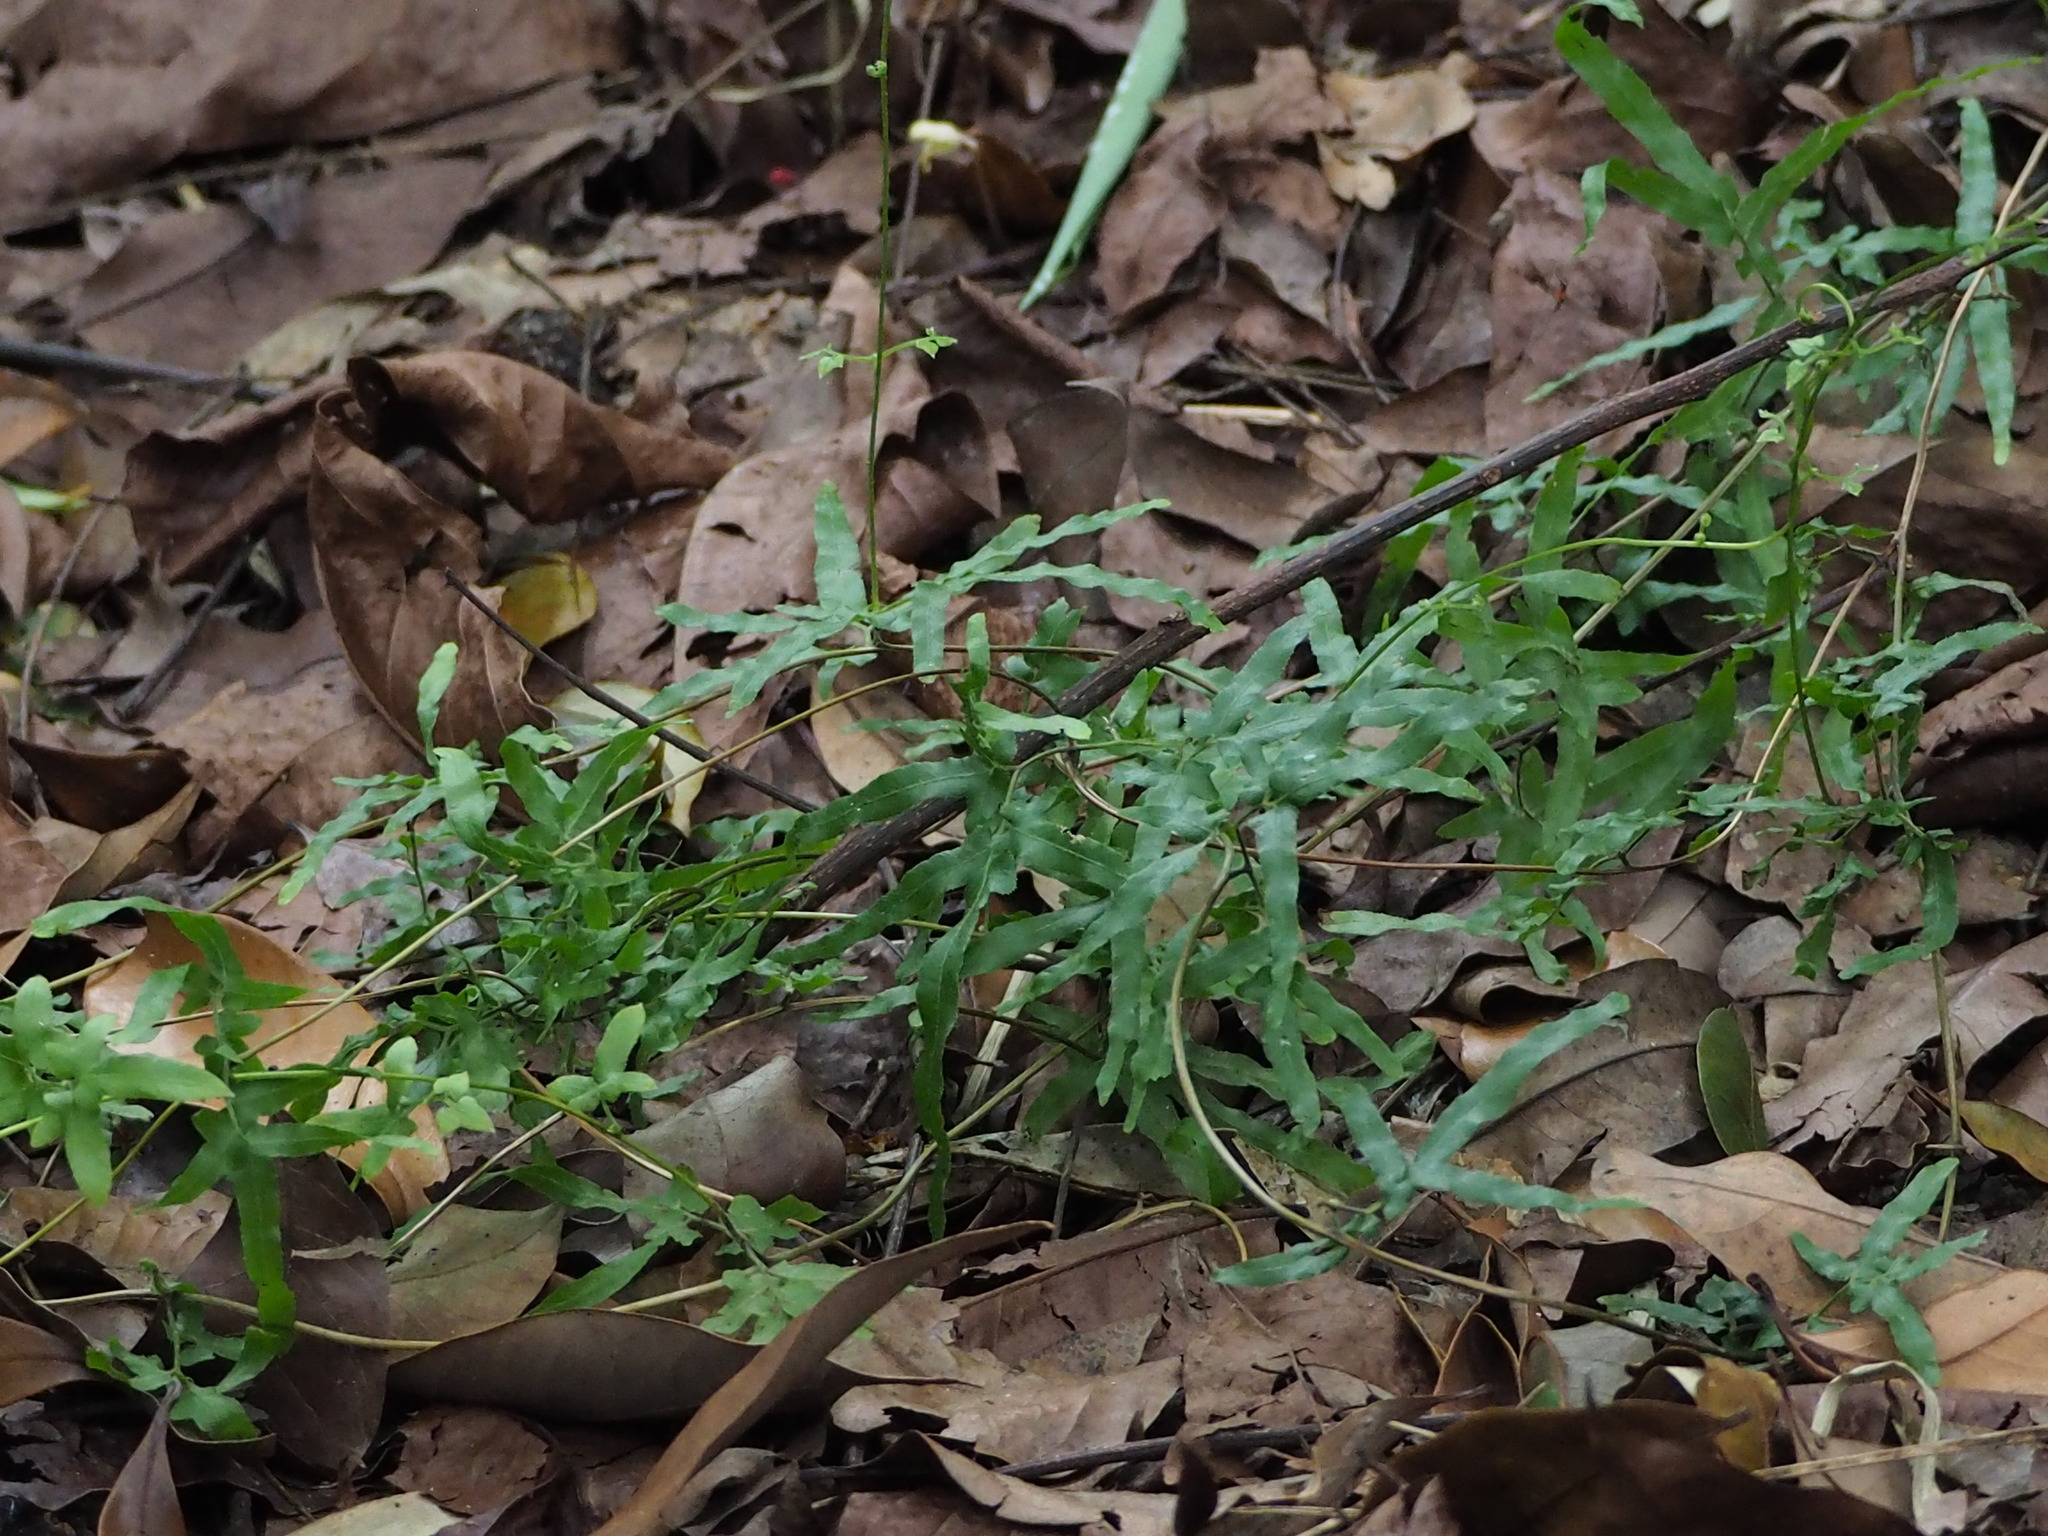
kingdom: Plantae
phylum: Tracheophyta
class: Polypodiopsida
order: Schizaeales
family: Lygodiaceae
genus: Lygodium
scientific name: Lygodium japonicum
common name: Japanese climbing fern
